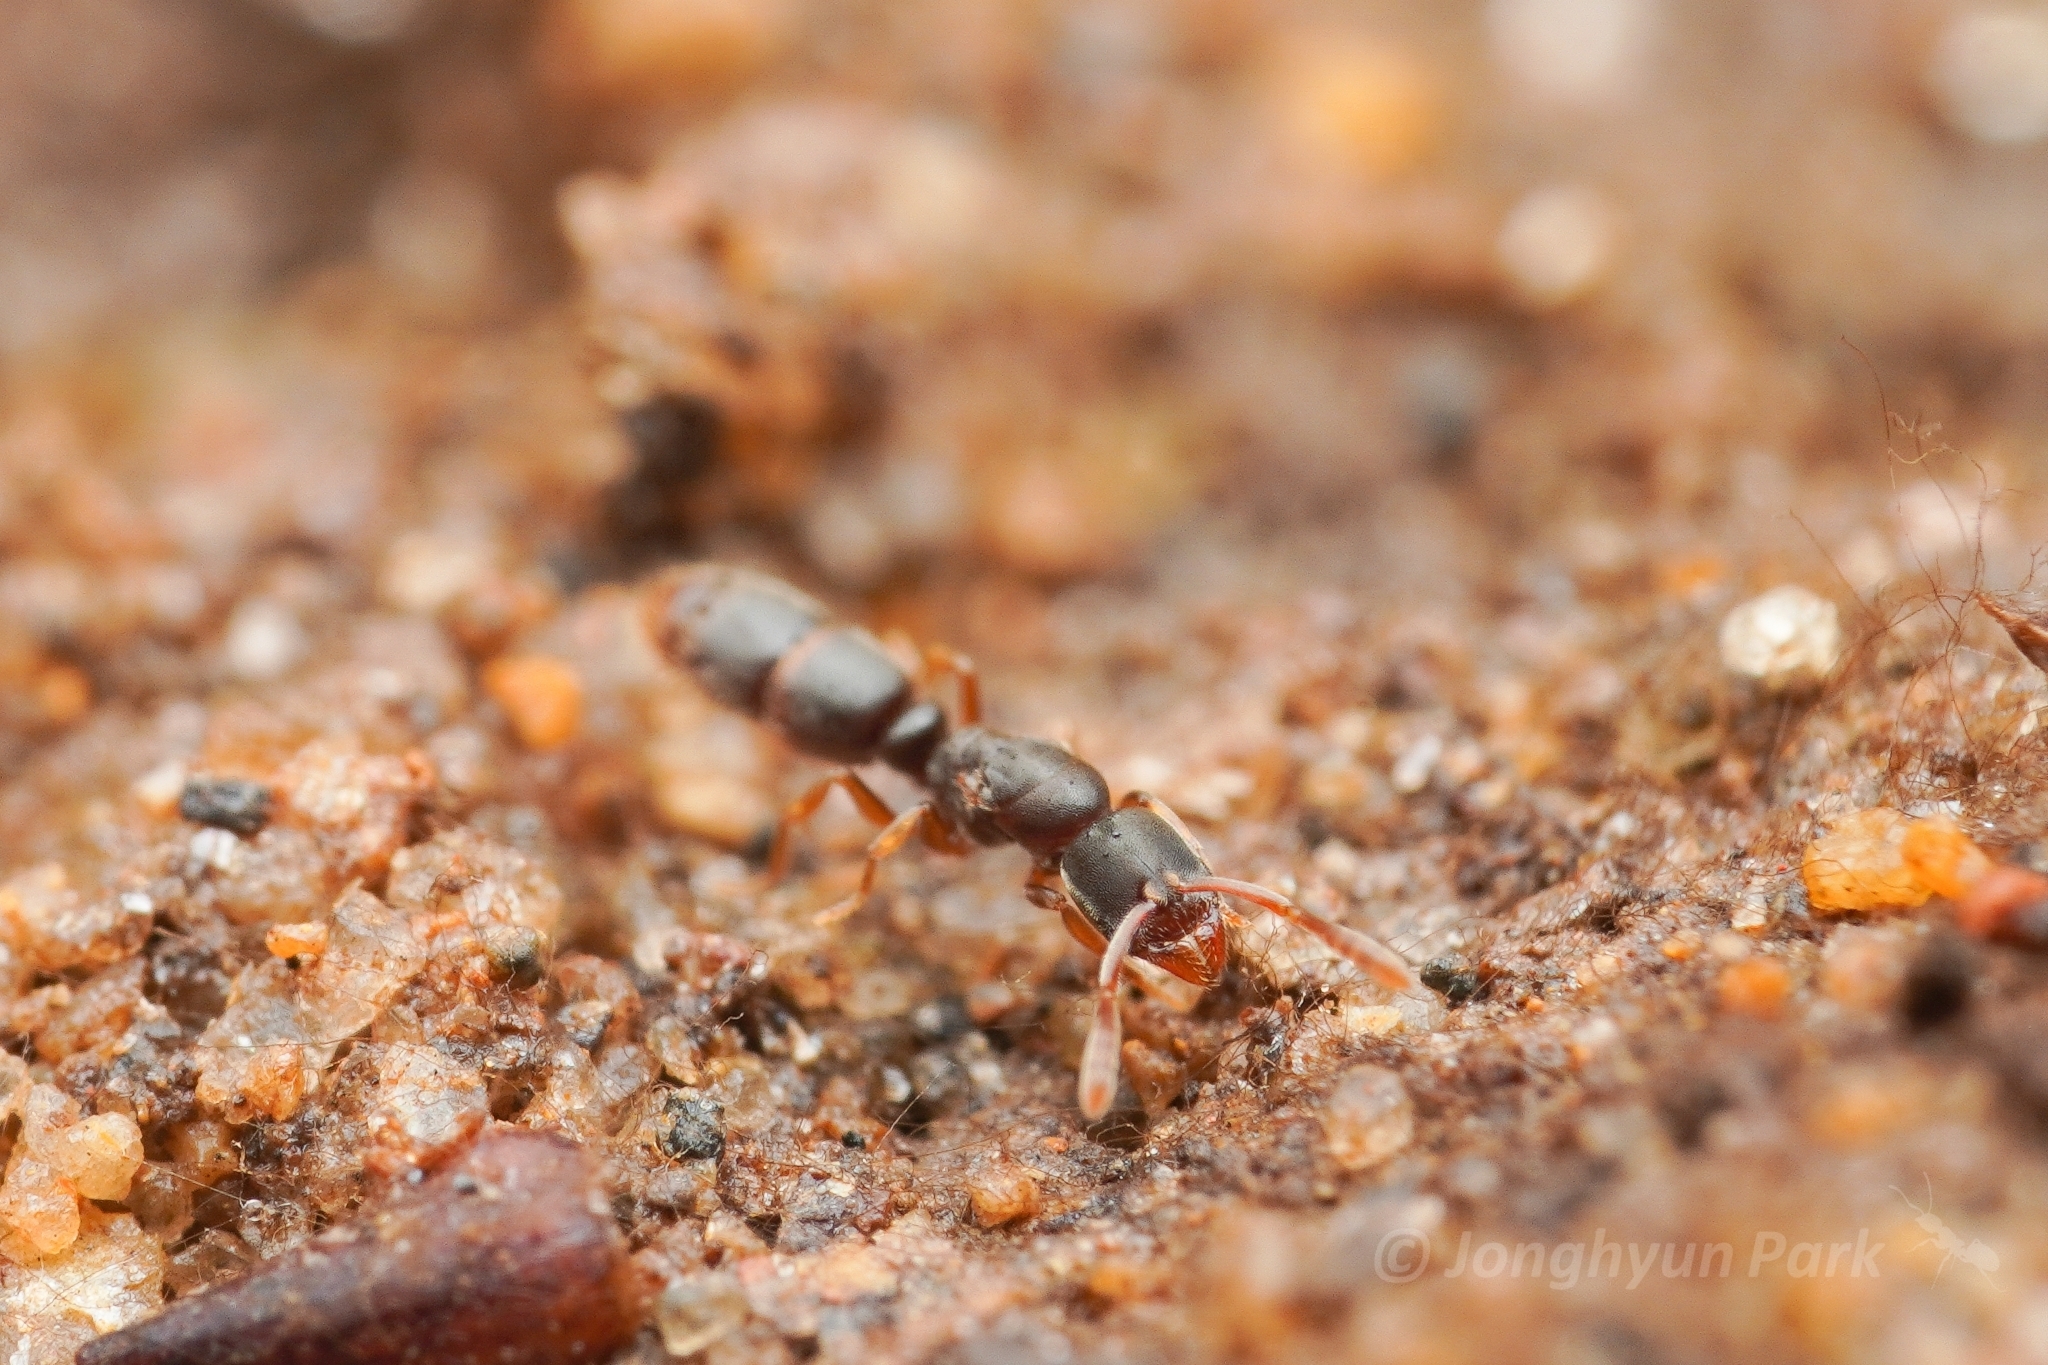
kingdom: Animalia
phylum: Arthropoda
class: Insecta
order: Hymenoptera
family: Formicidae
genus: Ponera
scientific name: Ponera japonica
